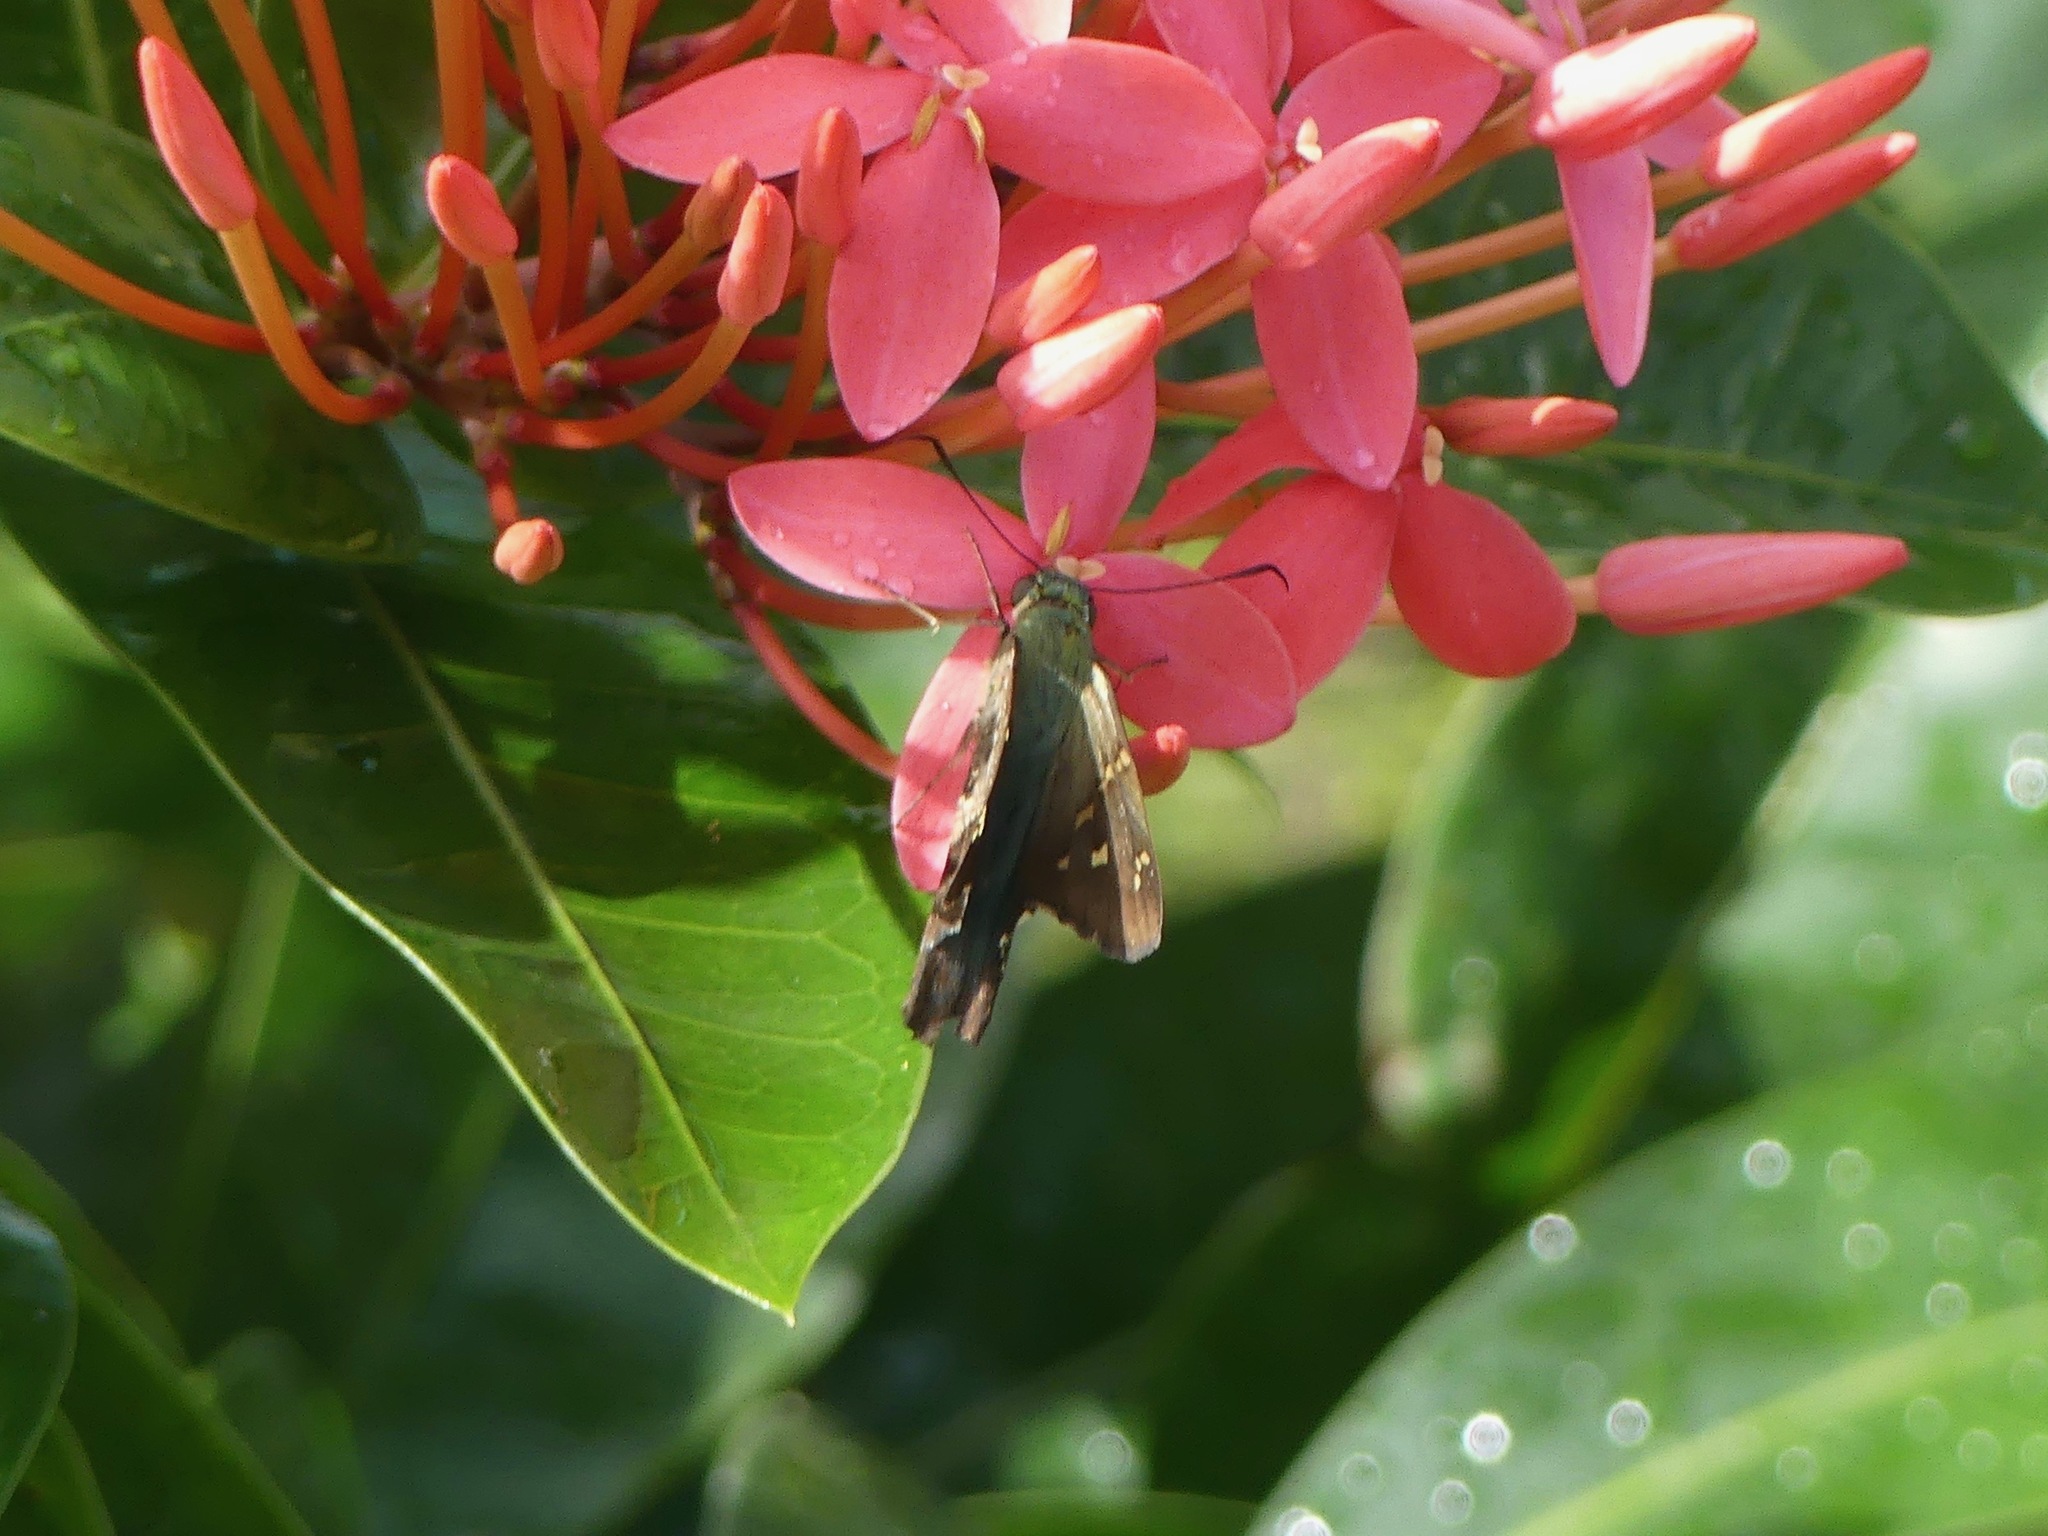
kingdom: Animalia
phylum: Arthropoda
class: Insecta
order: Lepidoptera
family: Hesperiidae
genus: Urbanus
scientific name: Urbanus proteus
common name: Long-tailed skipper
